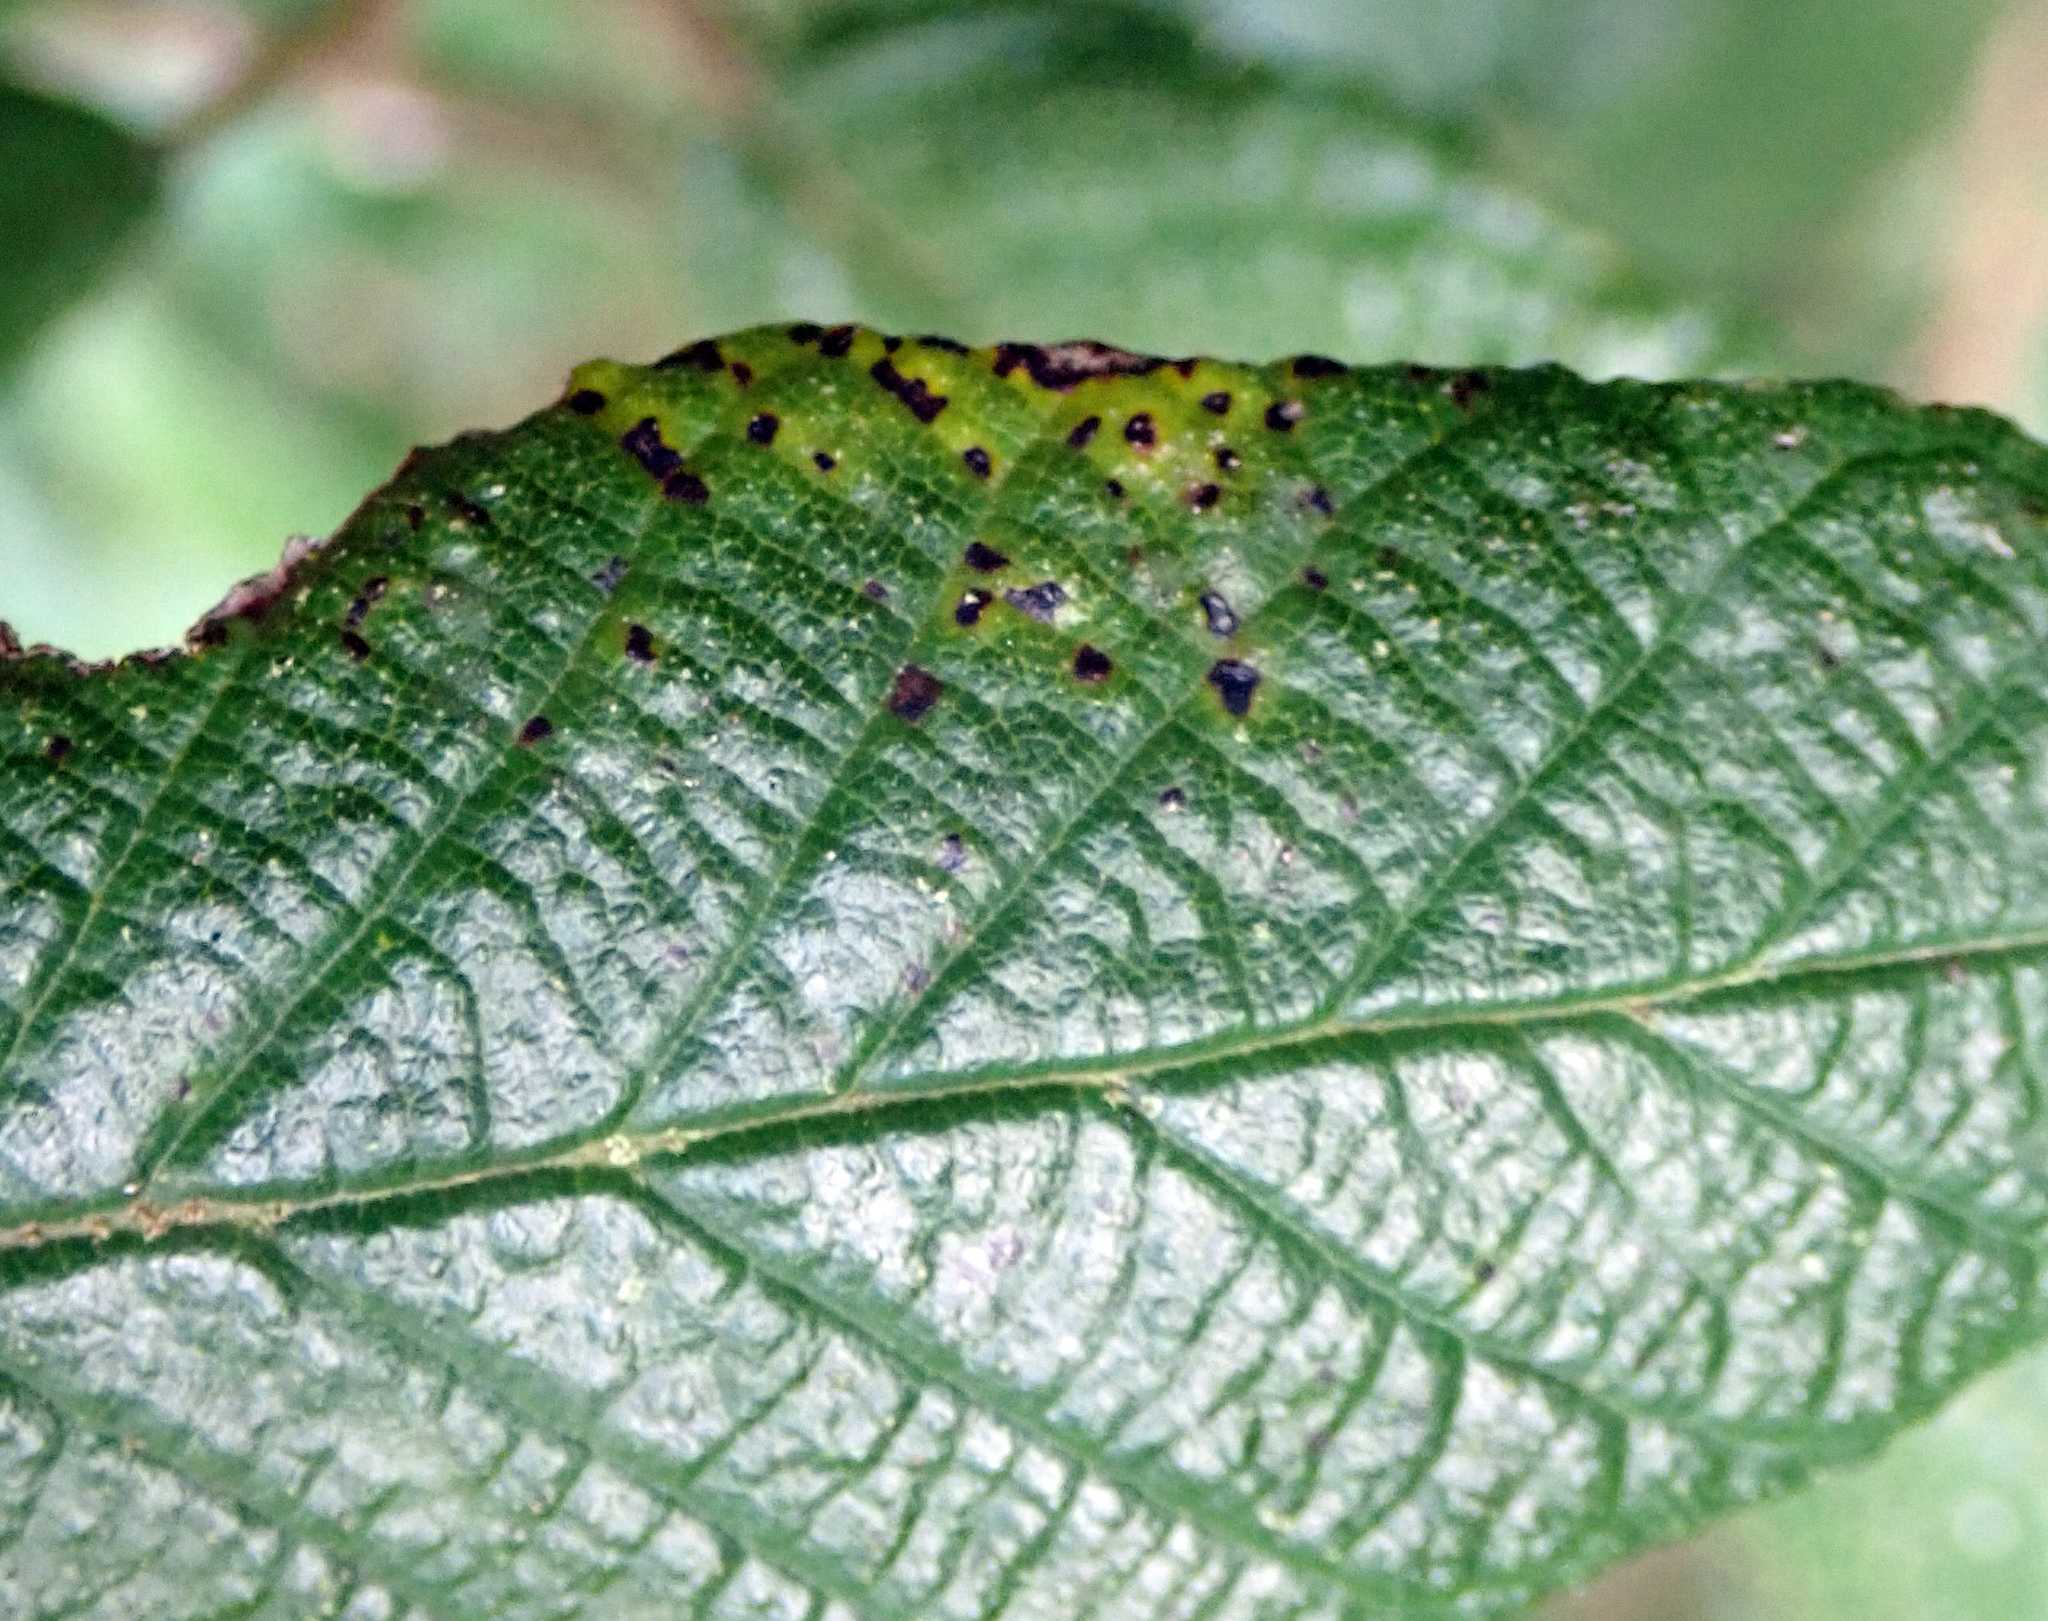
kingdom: Fungi
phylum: Basidiomycota
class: Pucciniomycetes
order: Pucciniales
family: Pucciniaceae
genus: Uredo
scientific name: Uredo spyridii
